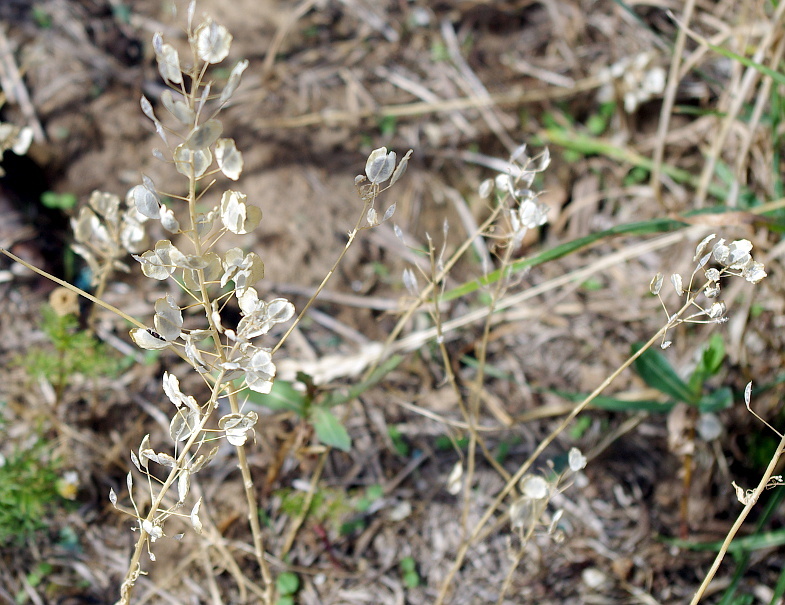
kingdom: Plantae
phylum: Tracheophyta
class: Magnoliopsida
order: Brassicales
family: Brassicaceae
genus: Thlaspi
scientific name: Thlaspi arvense
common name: Field pennycress
